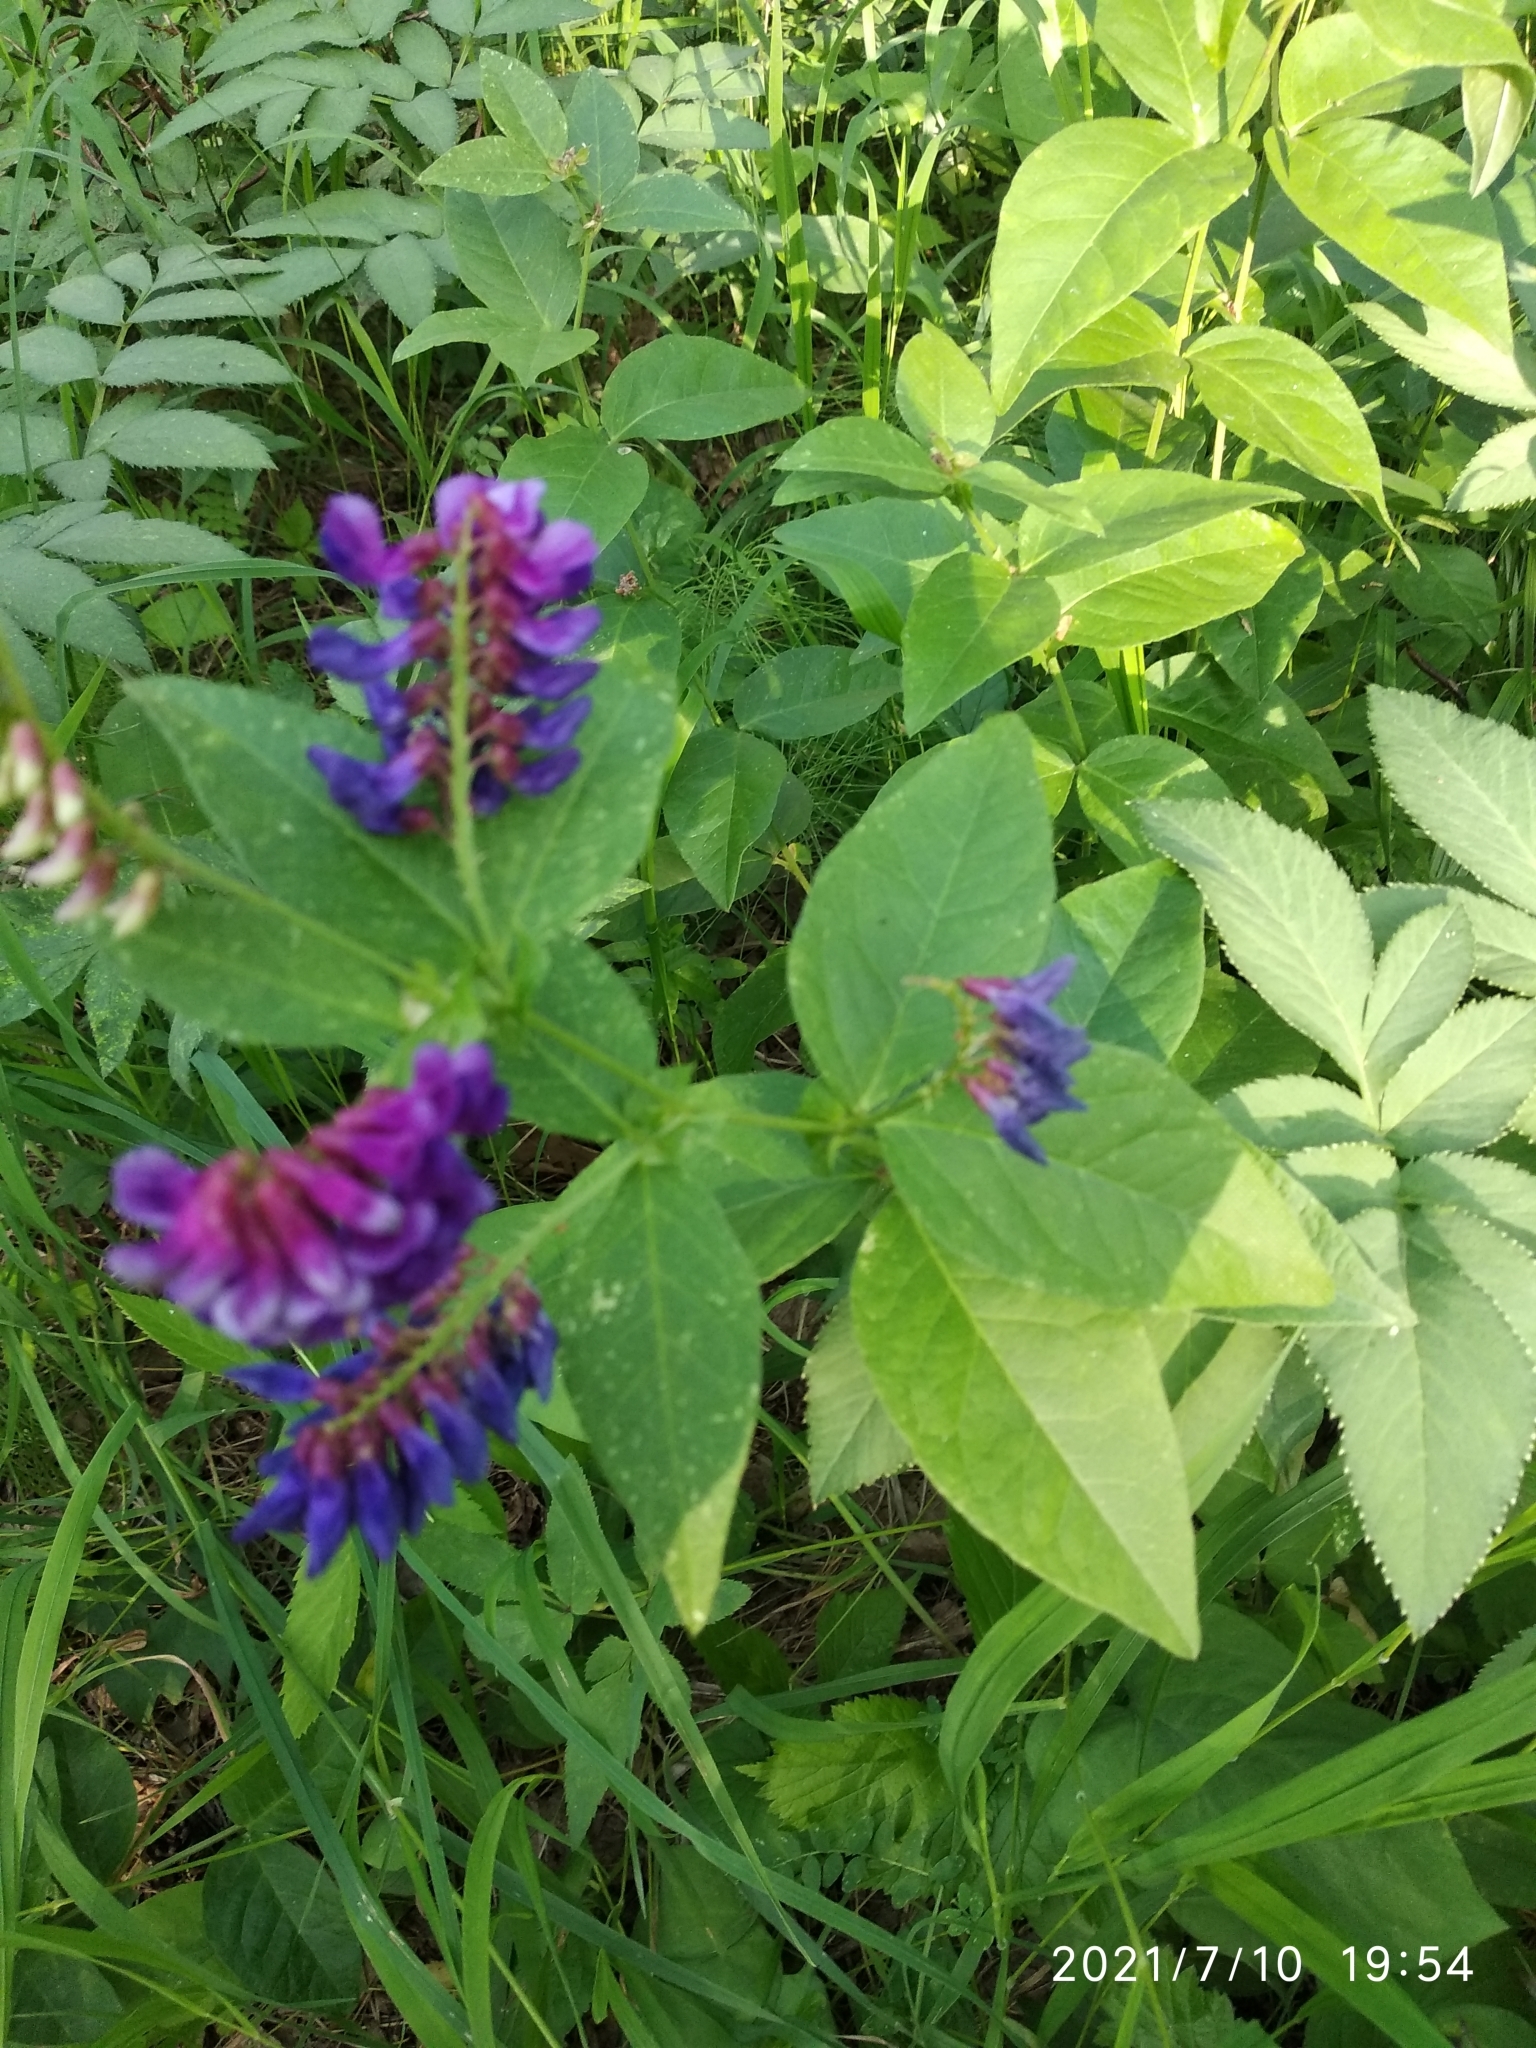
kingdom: Plantae
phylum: Tracheophyta
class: Magnoliopsida
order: Fabales
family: Fabaceae
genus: Vicia
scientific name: Vicia unijuga
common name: Two-leaf vetch
